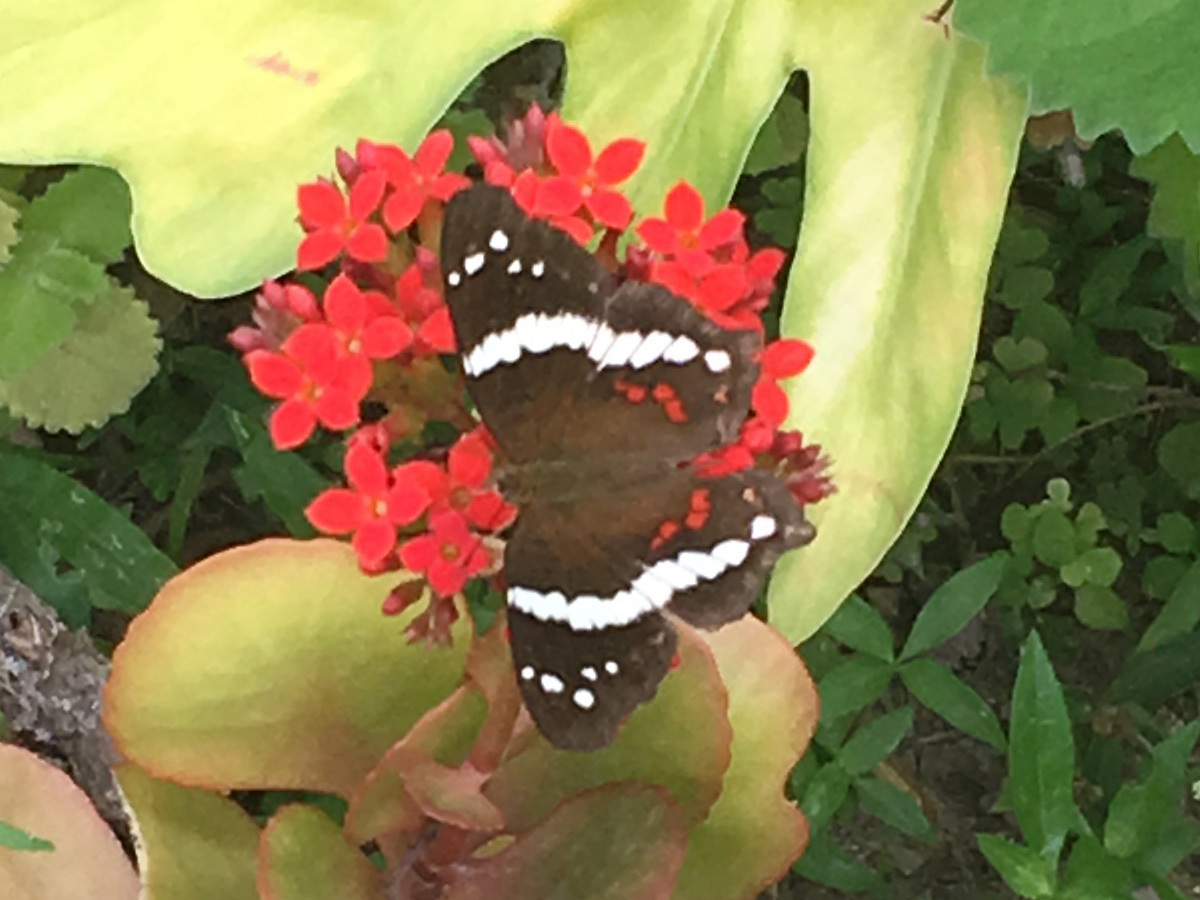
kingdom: Animalia
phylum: Arthropoda
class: Insecta
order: Lepidoptera
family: Nymphalidae
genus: Anartia
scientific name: Anartia fatima
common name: Banded peacock
